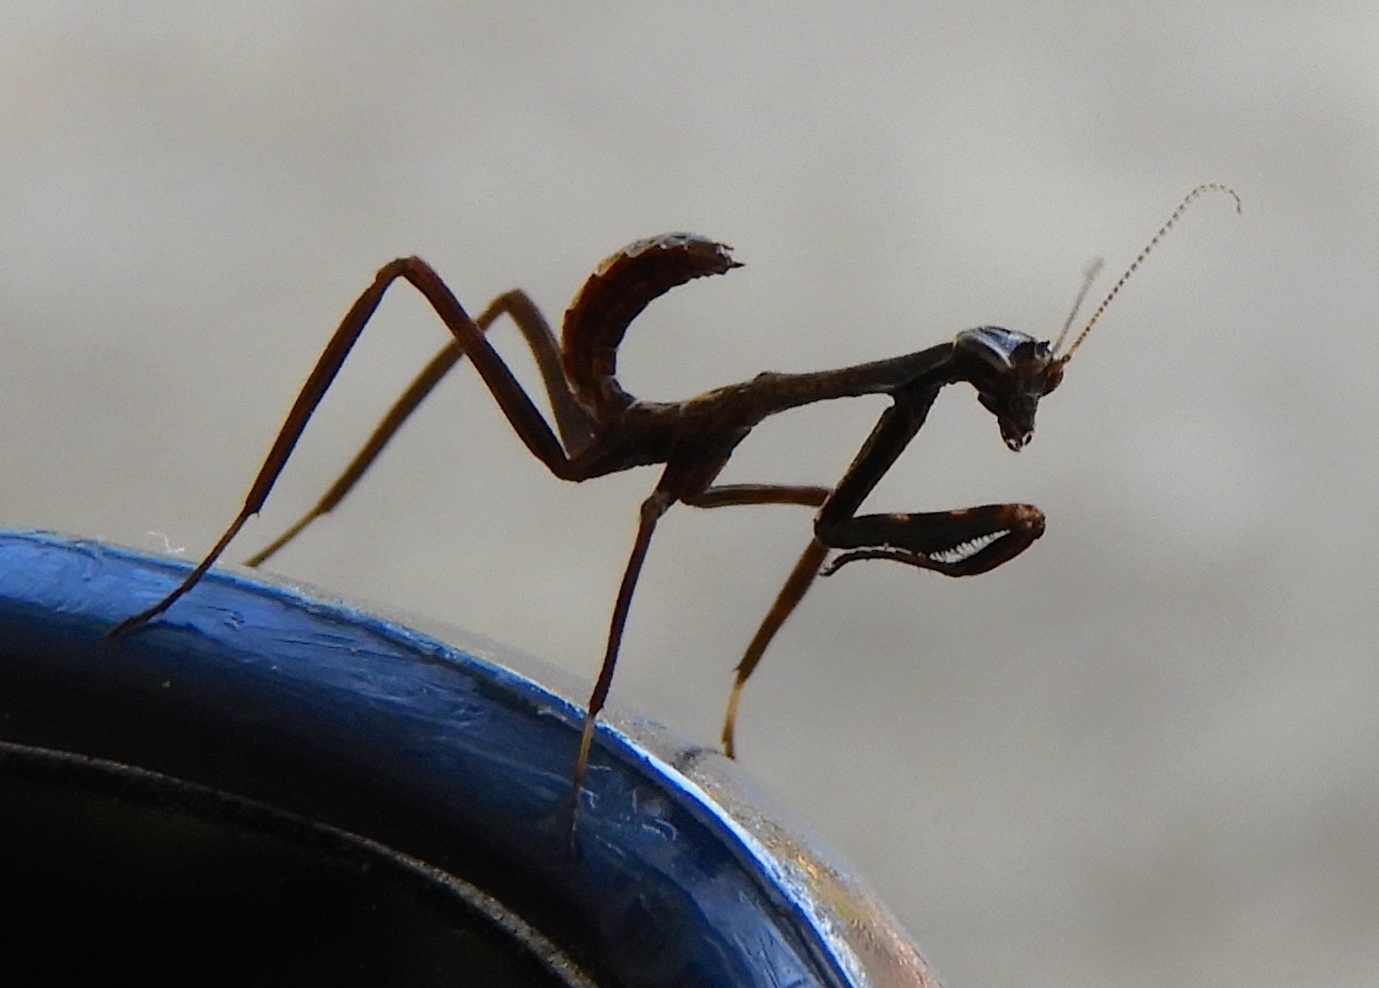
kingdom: Animalia
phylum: Arthropoda
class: Insecta
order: Mantodea
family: Mantidae
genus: Pseudovates
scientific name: Pseudovates chlorophaea
